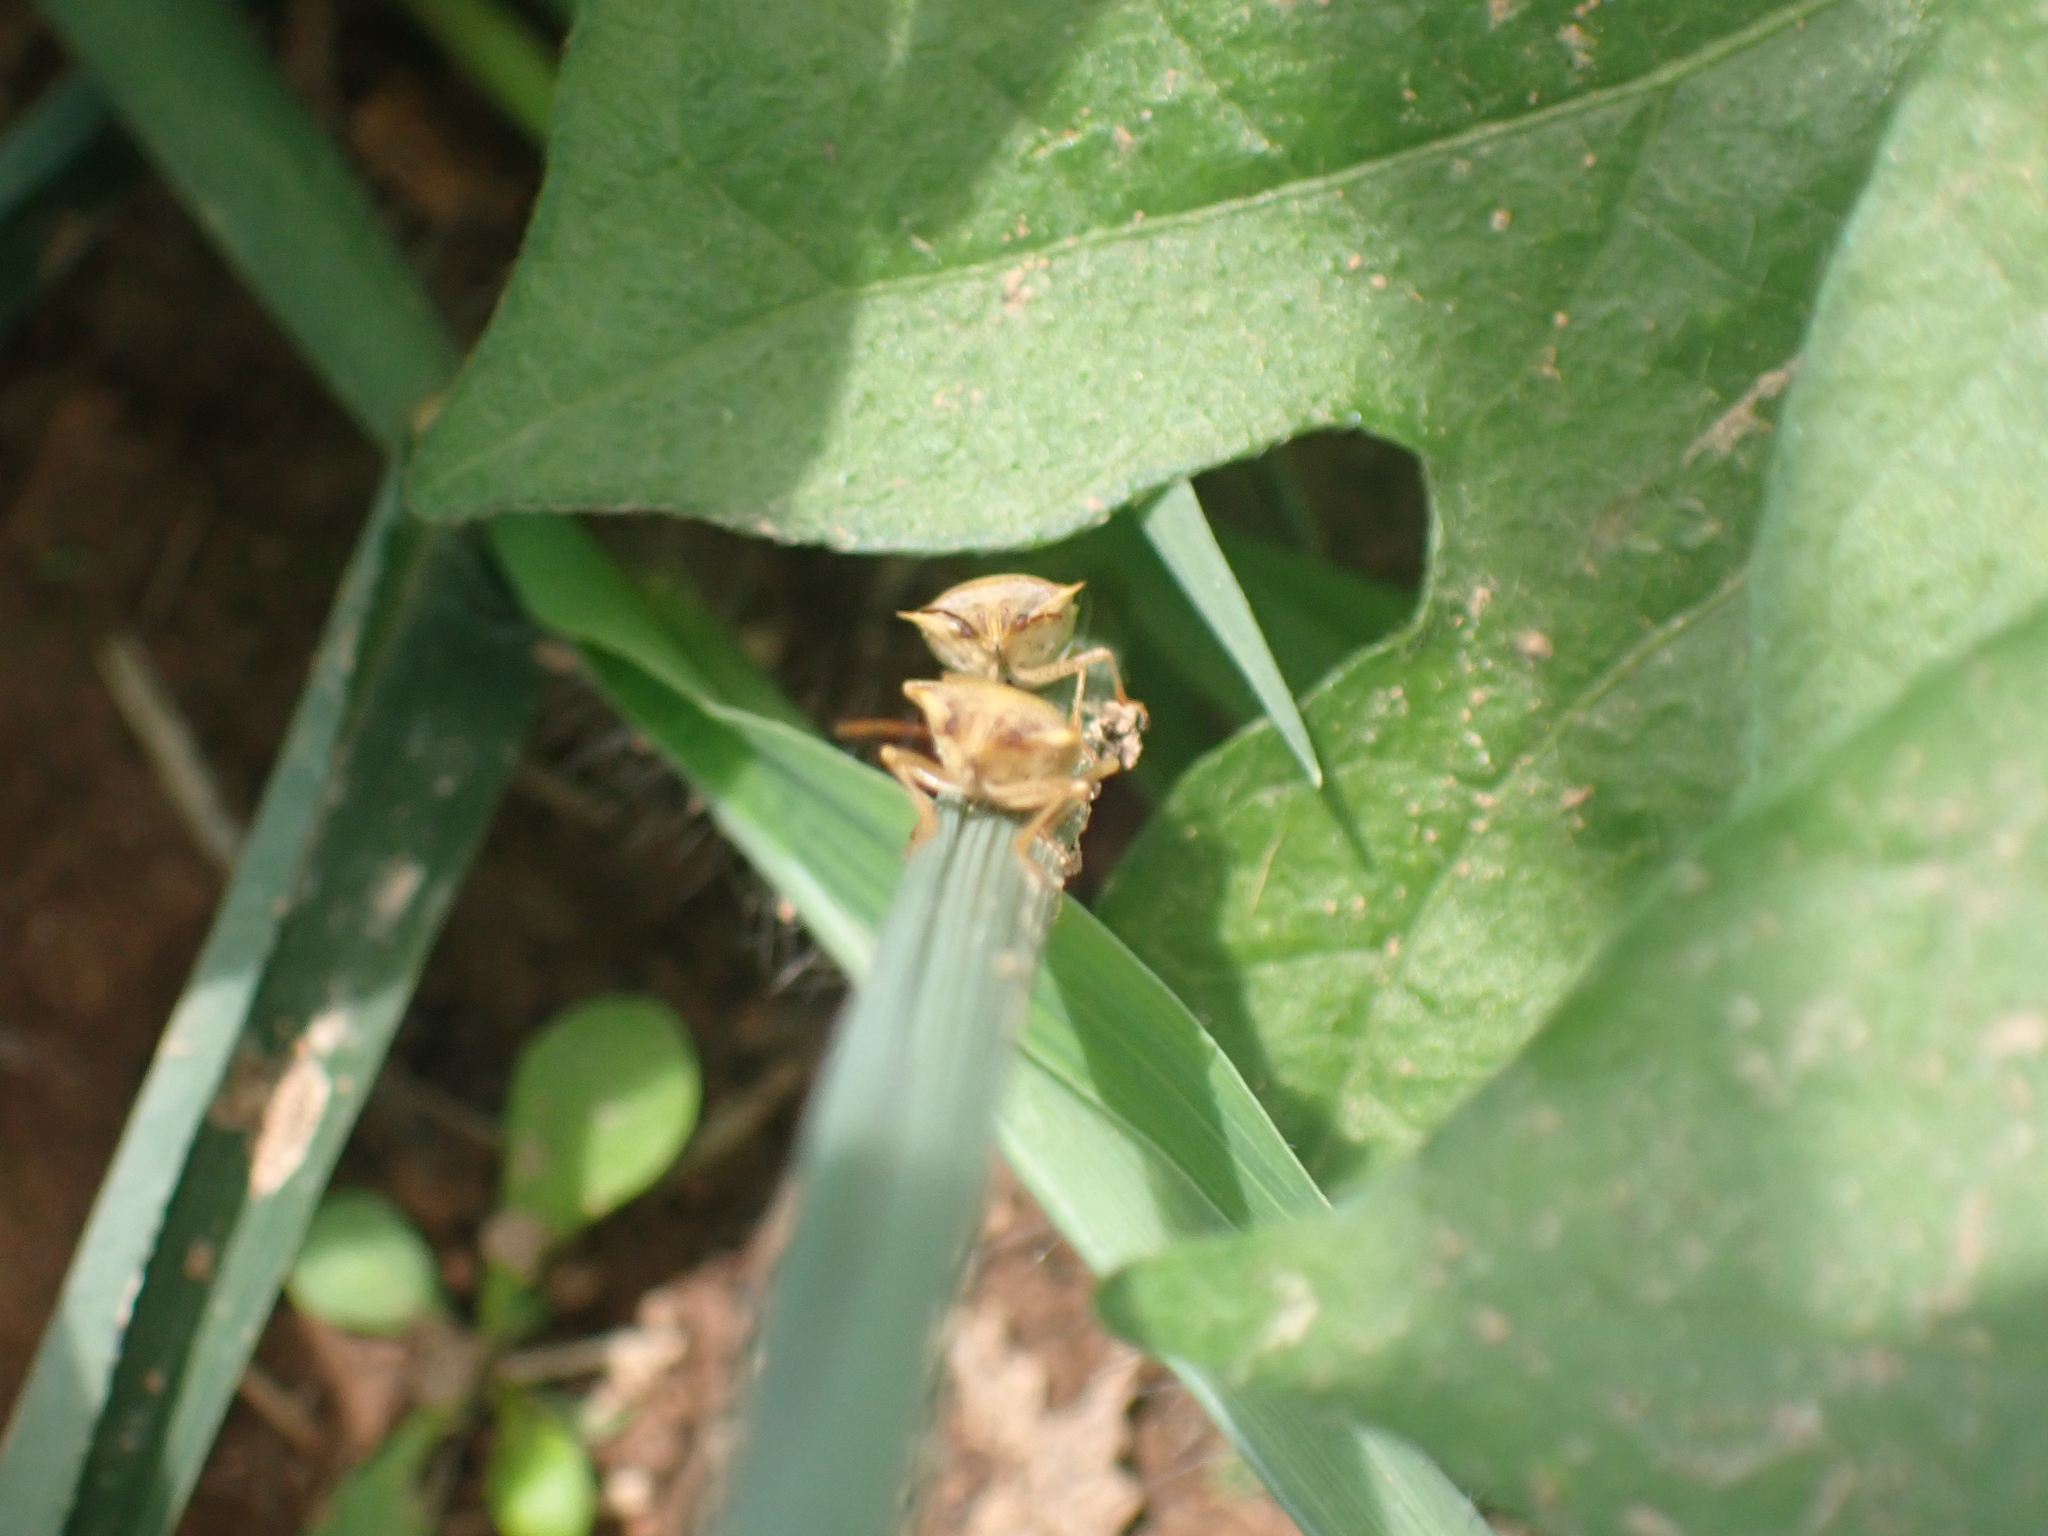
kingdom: Animalia
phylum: Arthropoda
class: Insecta
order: Hemiptera
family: Pentatomidae
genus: Oebalus
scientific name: Oebalus pugnax
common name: Rice stink bug
